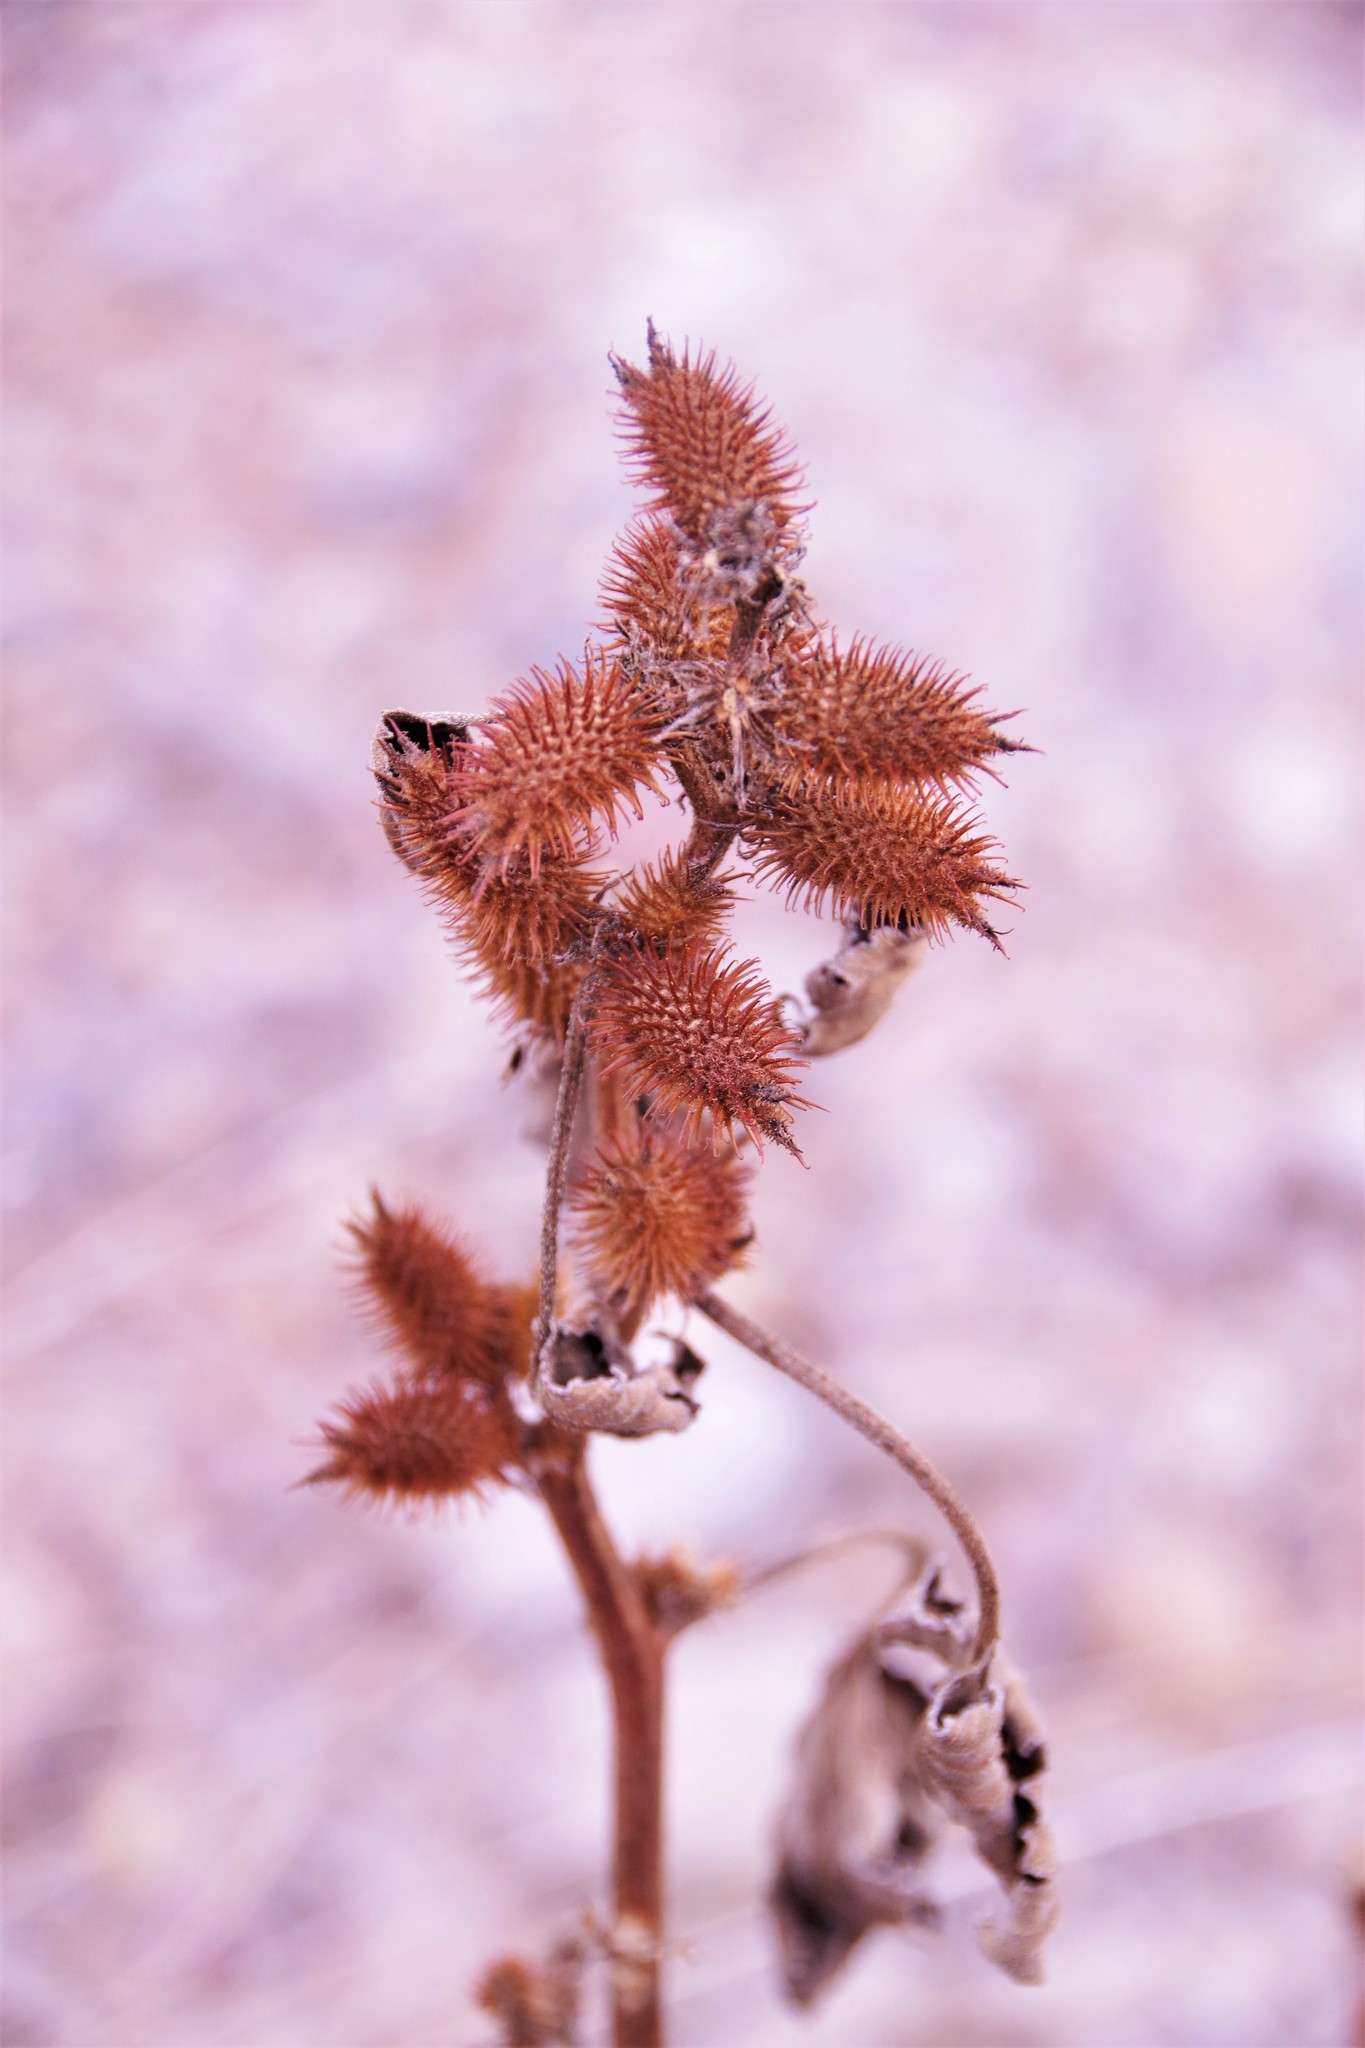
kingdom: Plantae
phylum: Tracheophyta
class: Magnoliopsida
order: Asterales
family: Asteraceae
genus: Xanthium
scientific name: Xanthium strumarium
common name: Rough cocklebur
